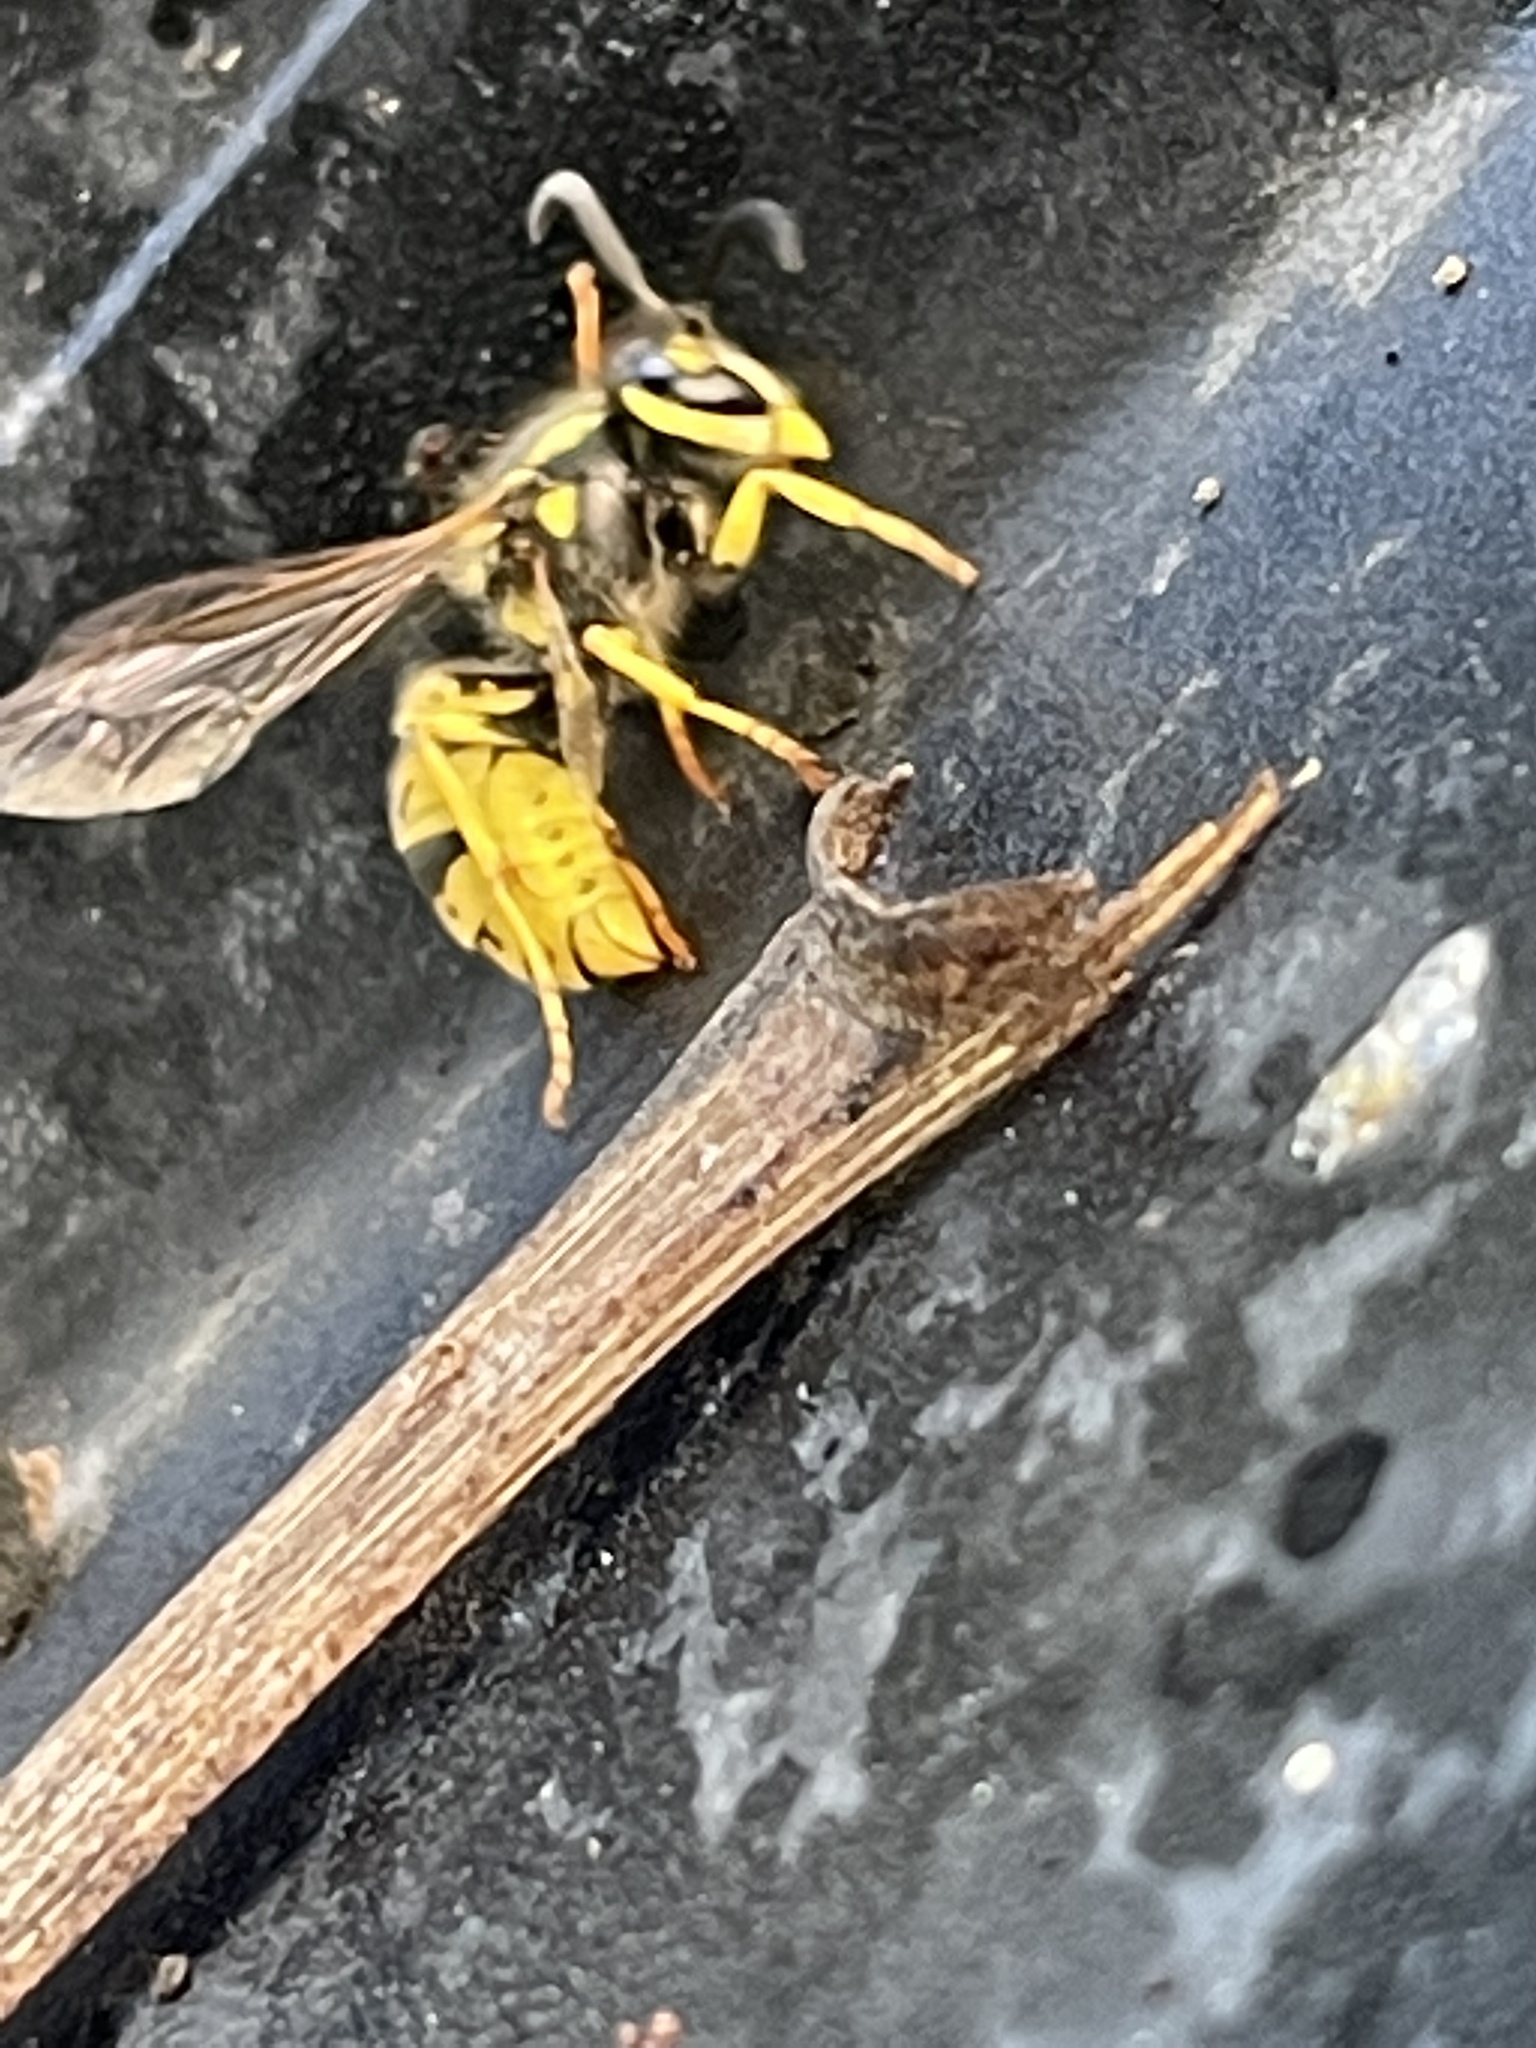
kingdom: Animalia
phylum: Arthropoda
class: Insecta
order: Hymenoptera
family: Vespidae
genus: Vespula
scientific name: Vespula germanica
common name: German wasp
